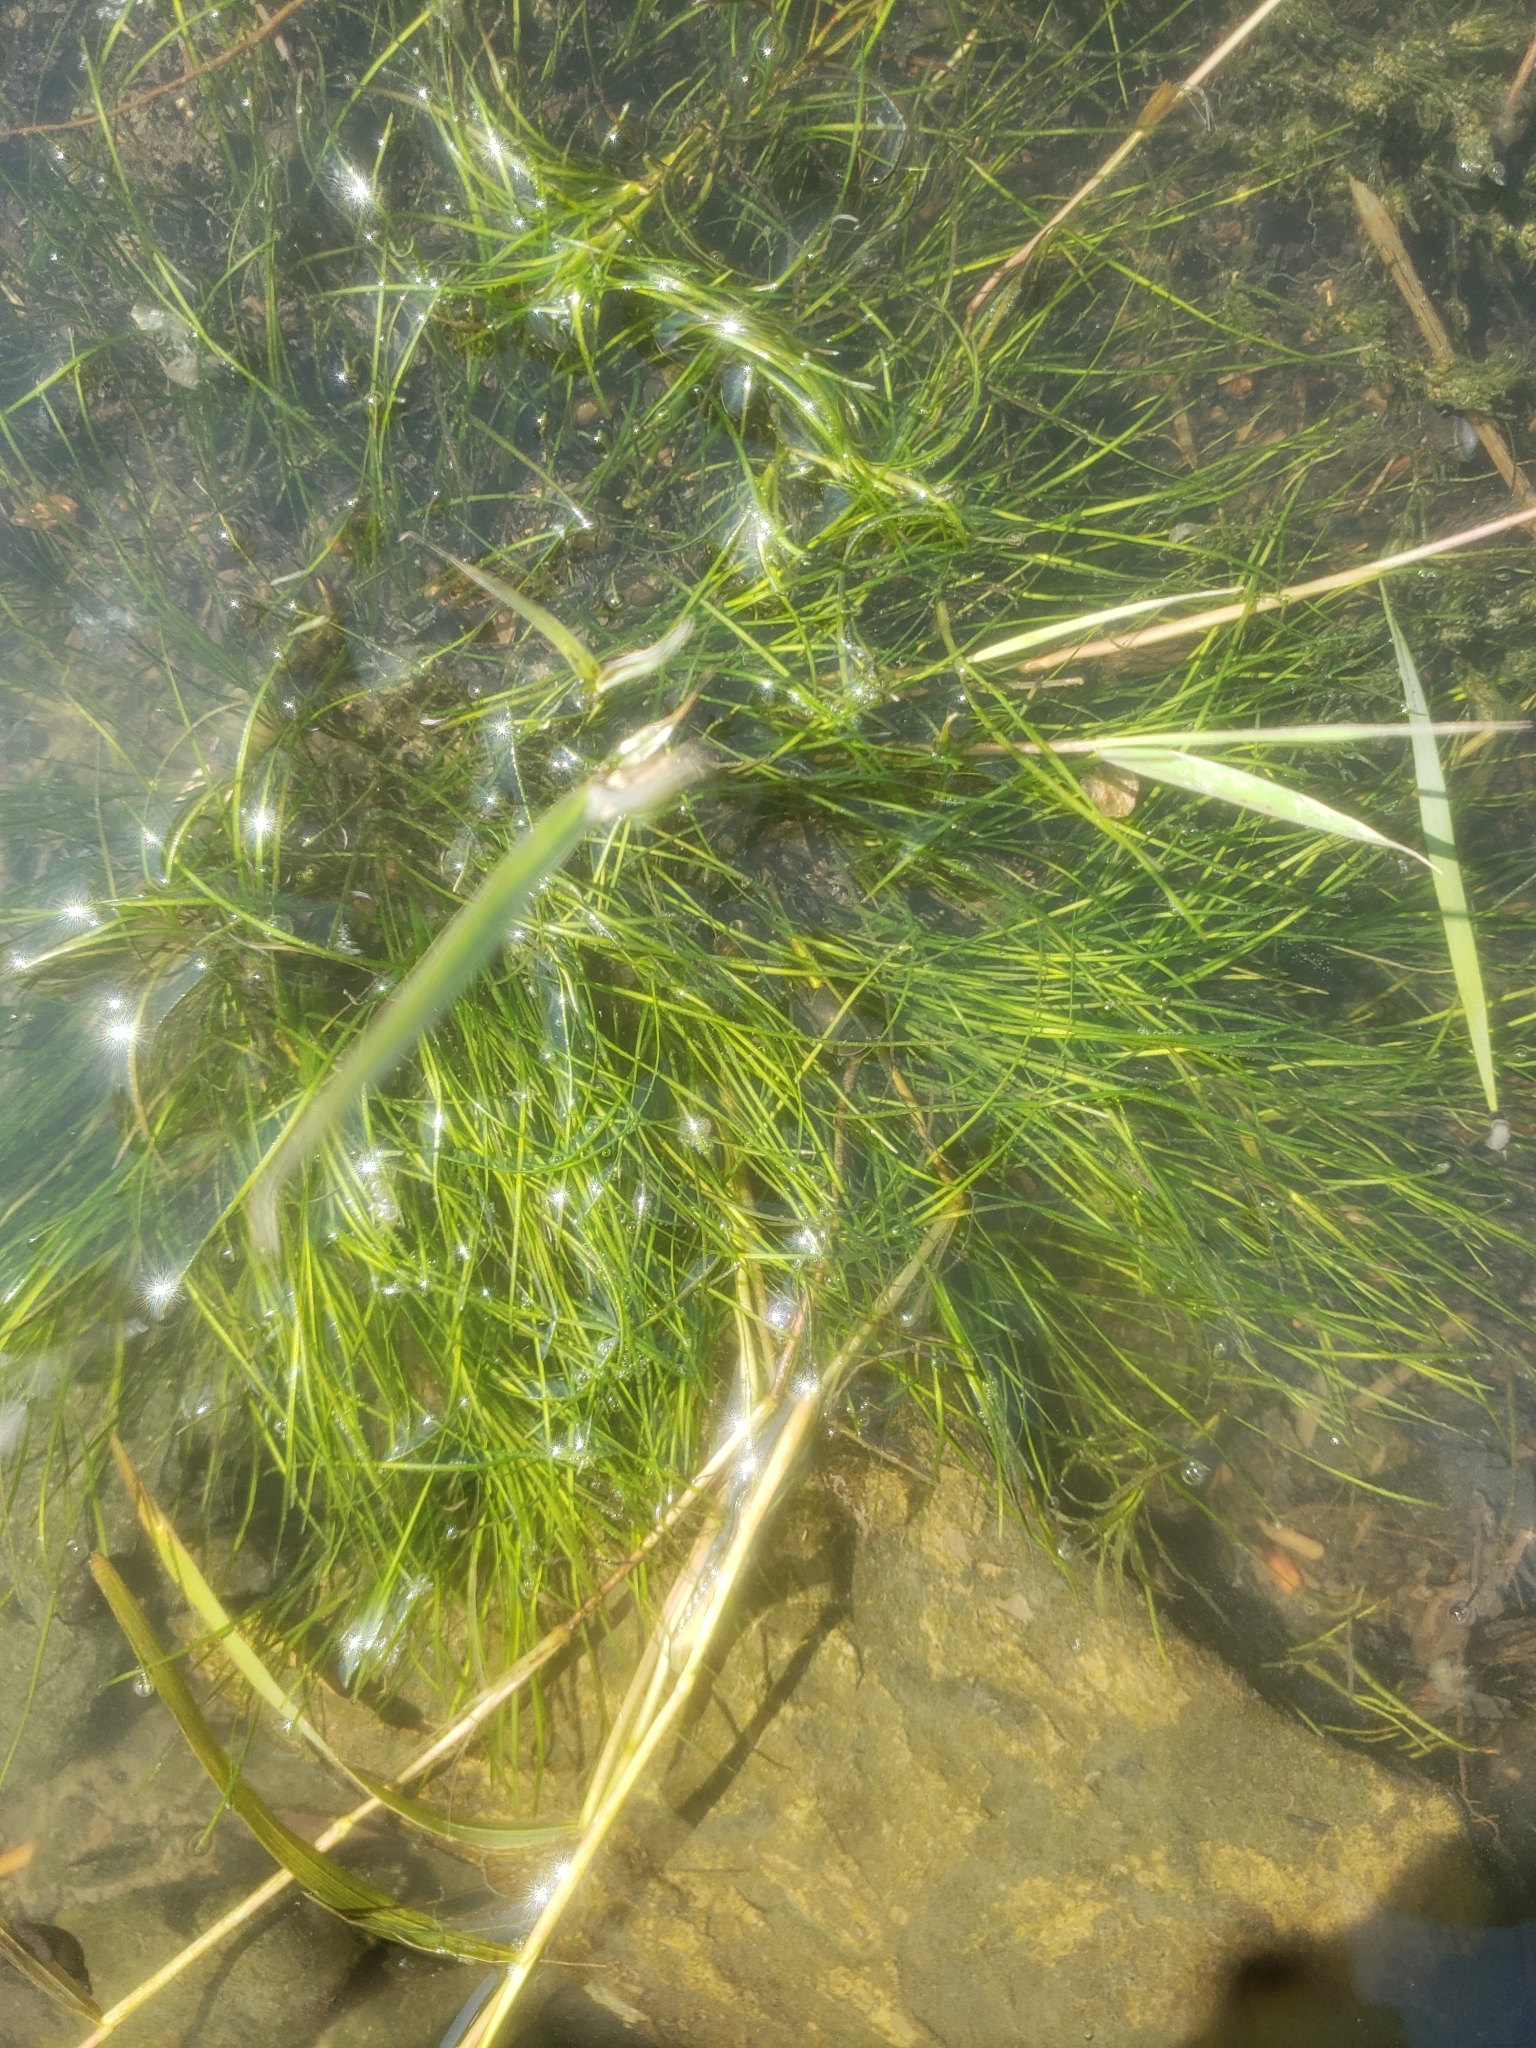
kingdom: Plantae
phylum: Tracheophyta
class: Liliopsida
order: Alismatales
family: Ruppiaceae
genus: Ruppia
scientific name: Ruppia maritima
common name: Beaked tasselweed
